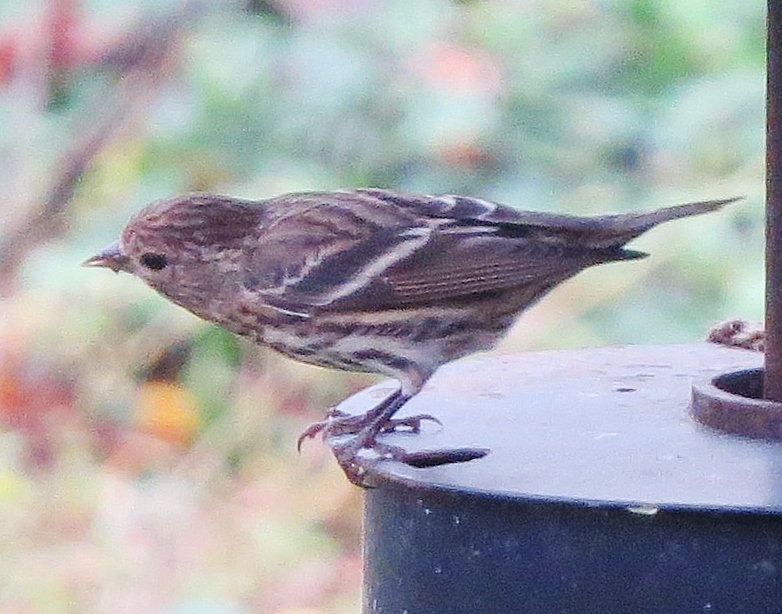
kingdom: Animalia
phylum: Chordata
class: Aves
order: Passeriformes
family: Fringillidae
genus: Spinus
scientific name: Spinus pinus
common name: Pine siskin
